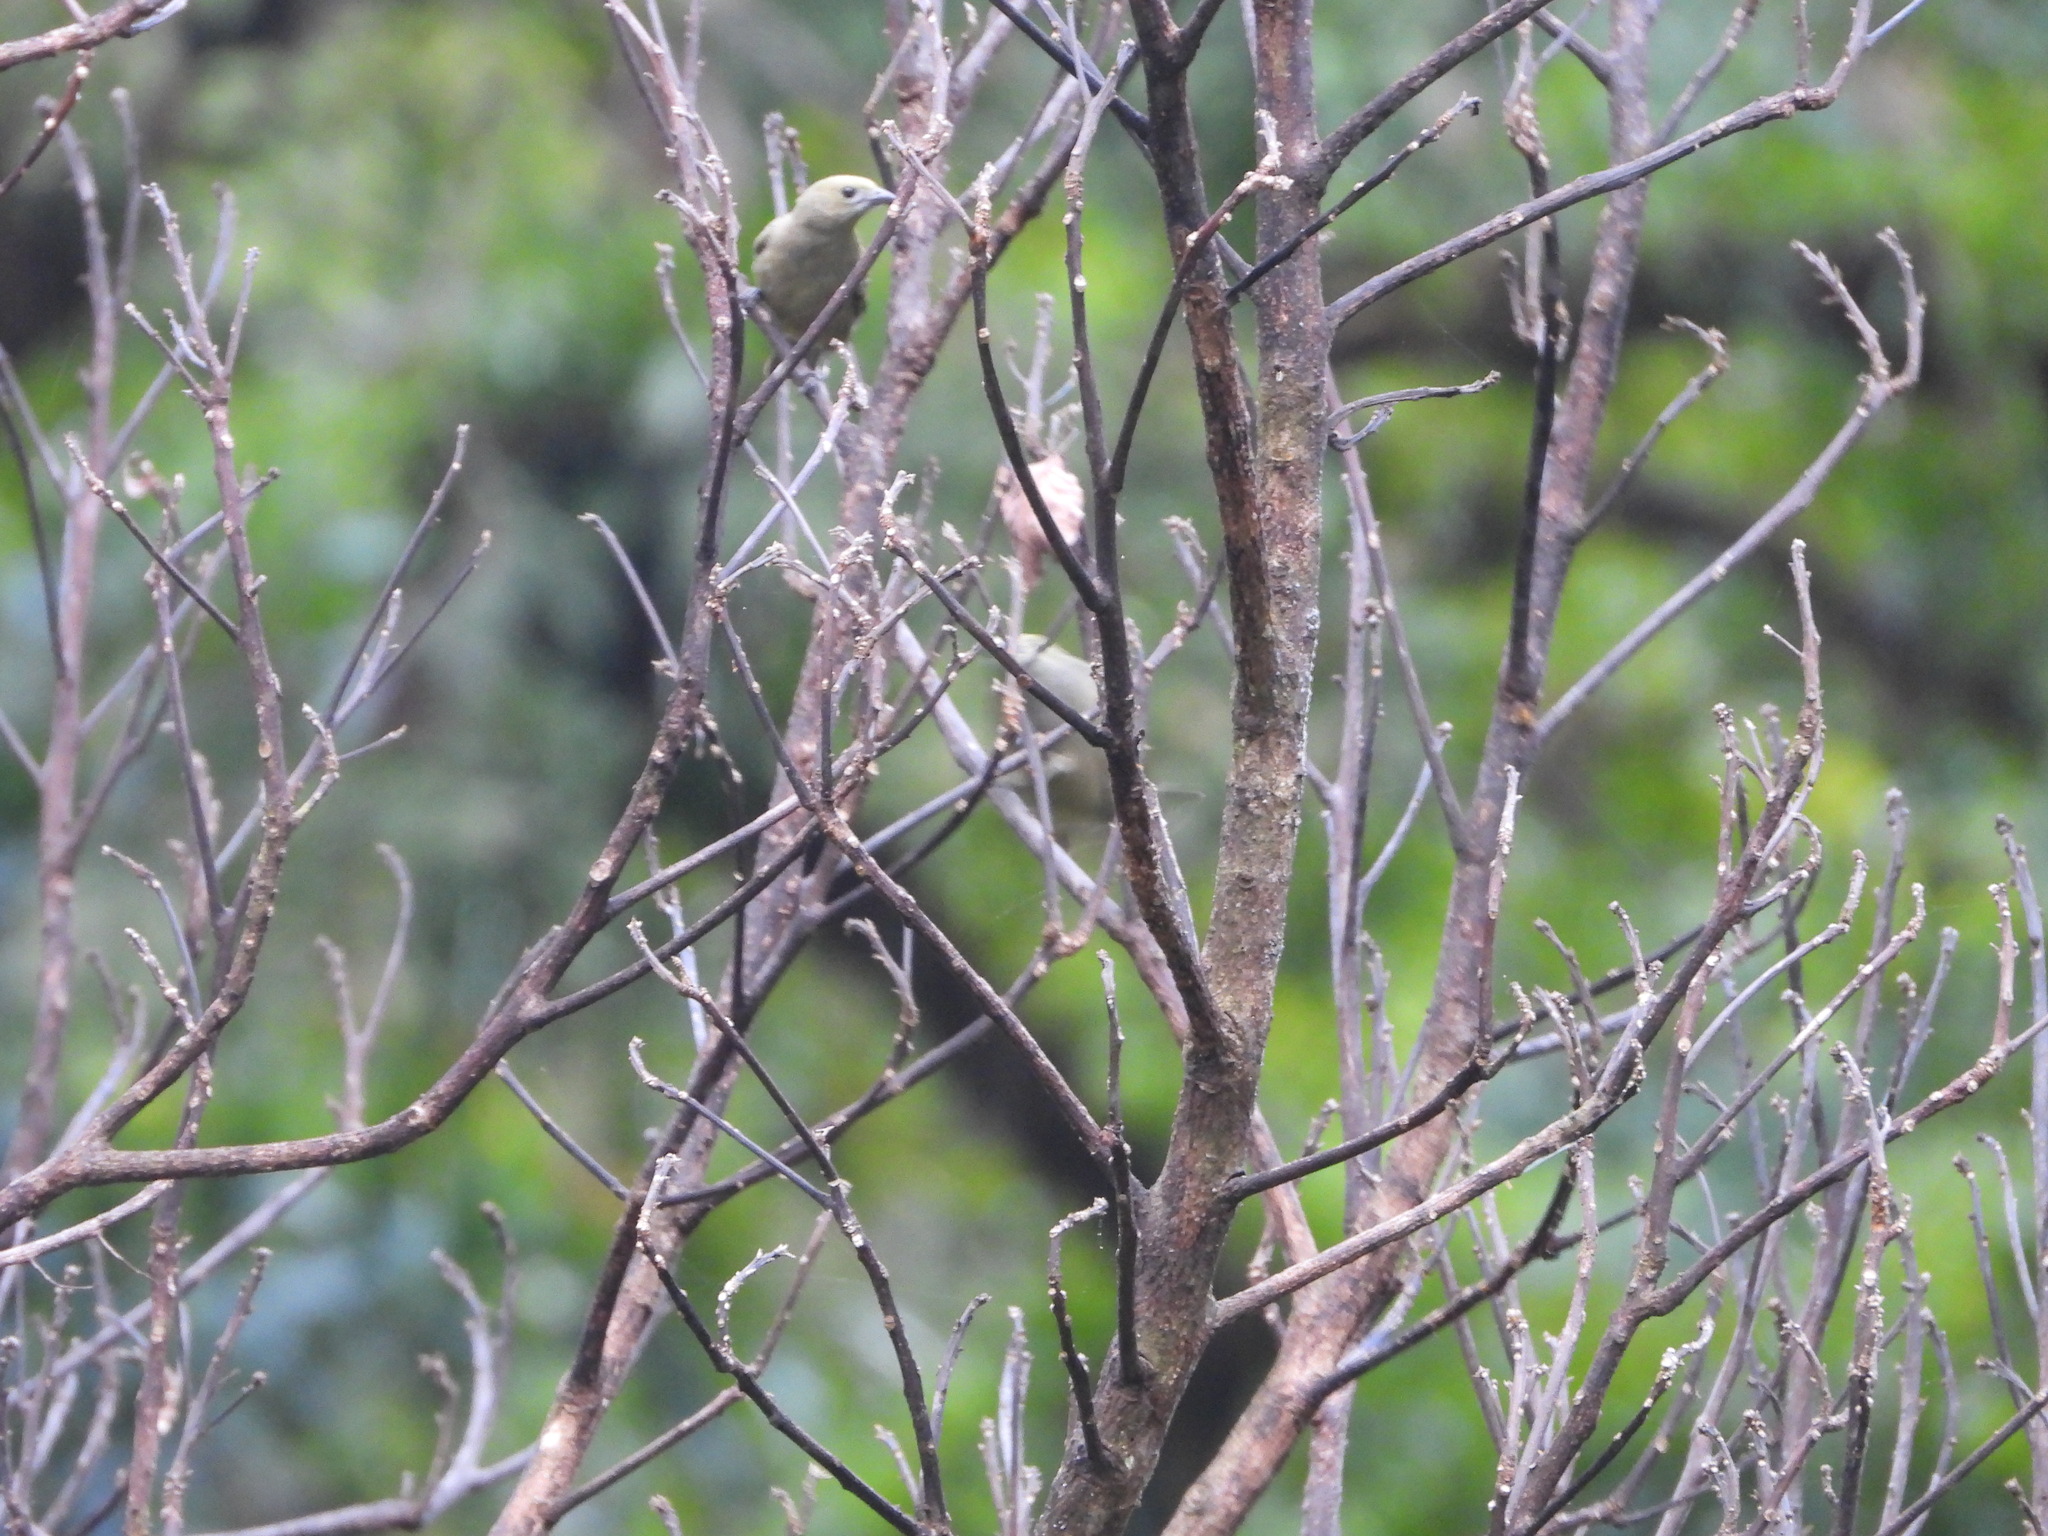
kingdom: Animalia
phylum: Chordata
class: Aves
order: Passeriformes
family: Thraupidae
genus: Thraupis
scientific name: Thraupis palmarum
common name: Palm tanager
